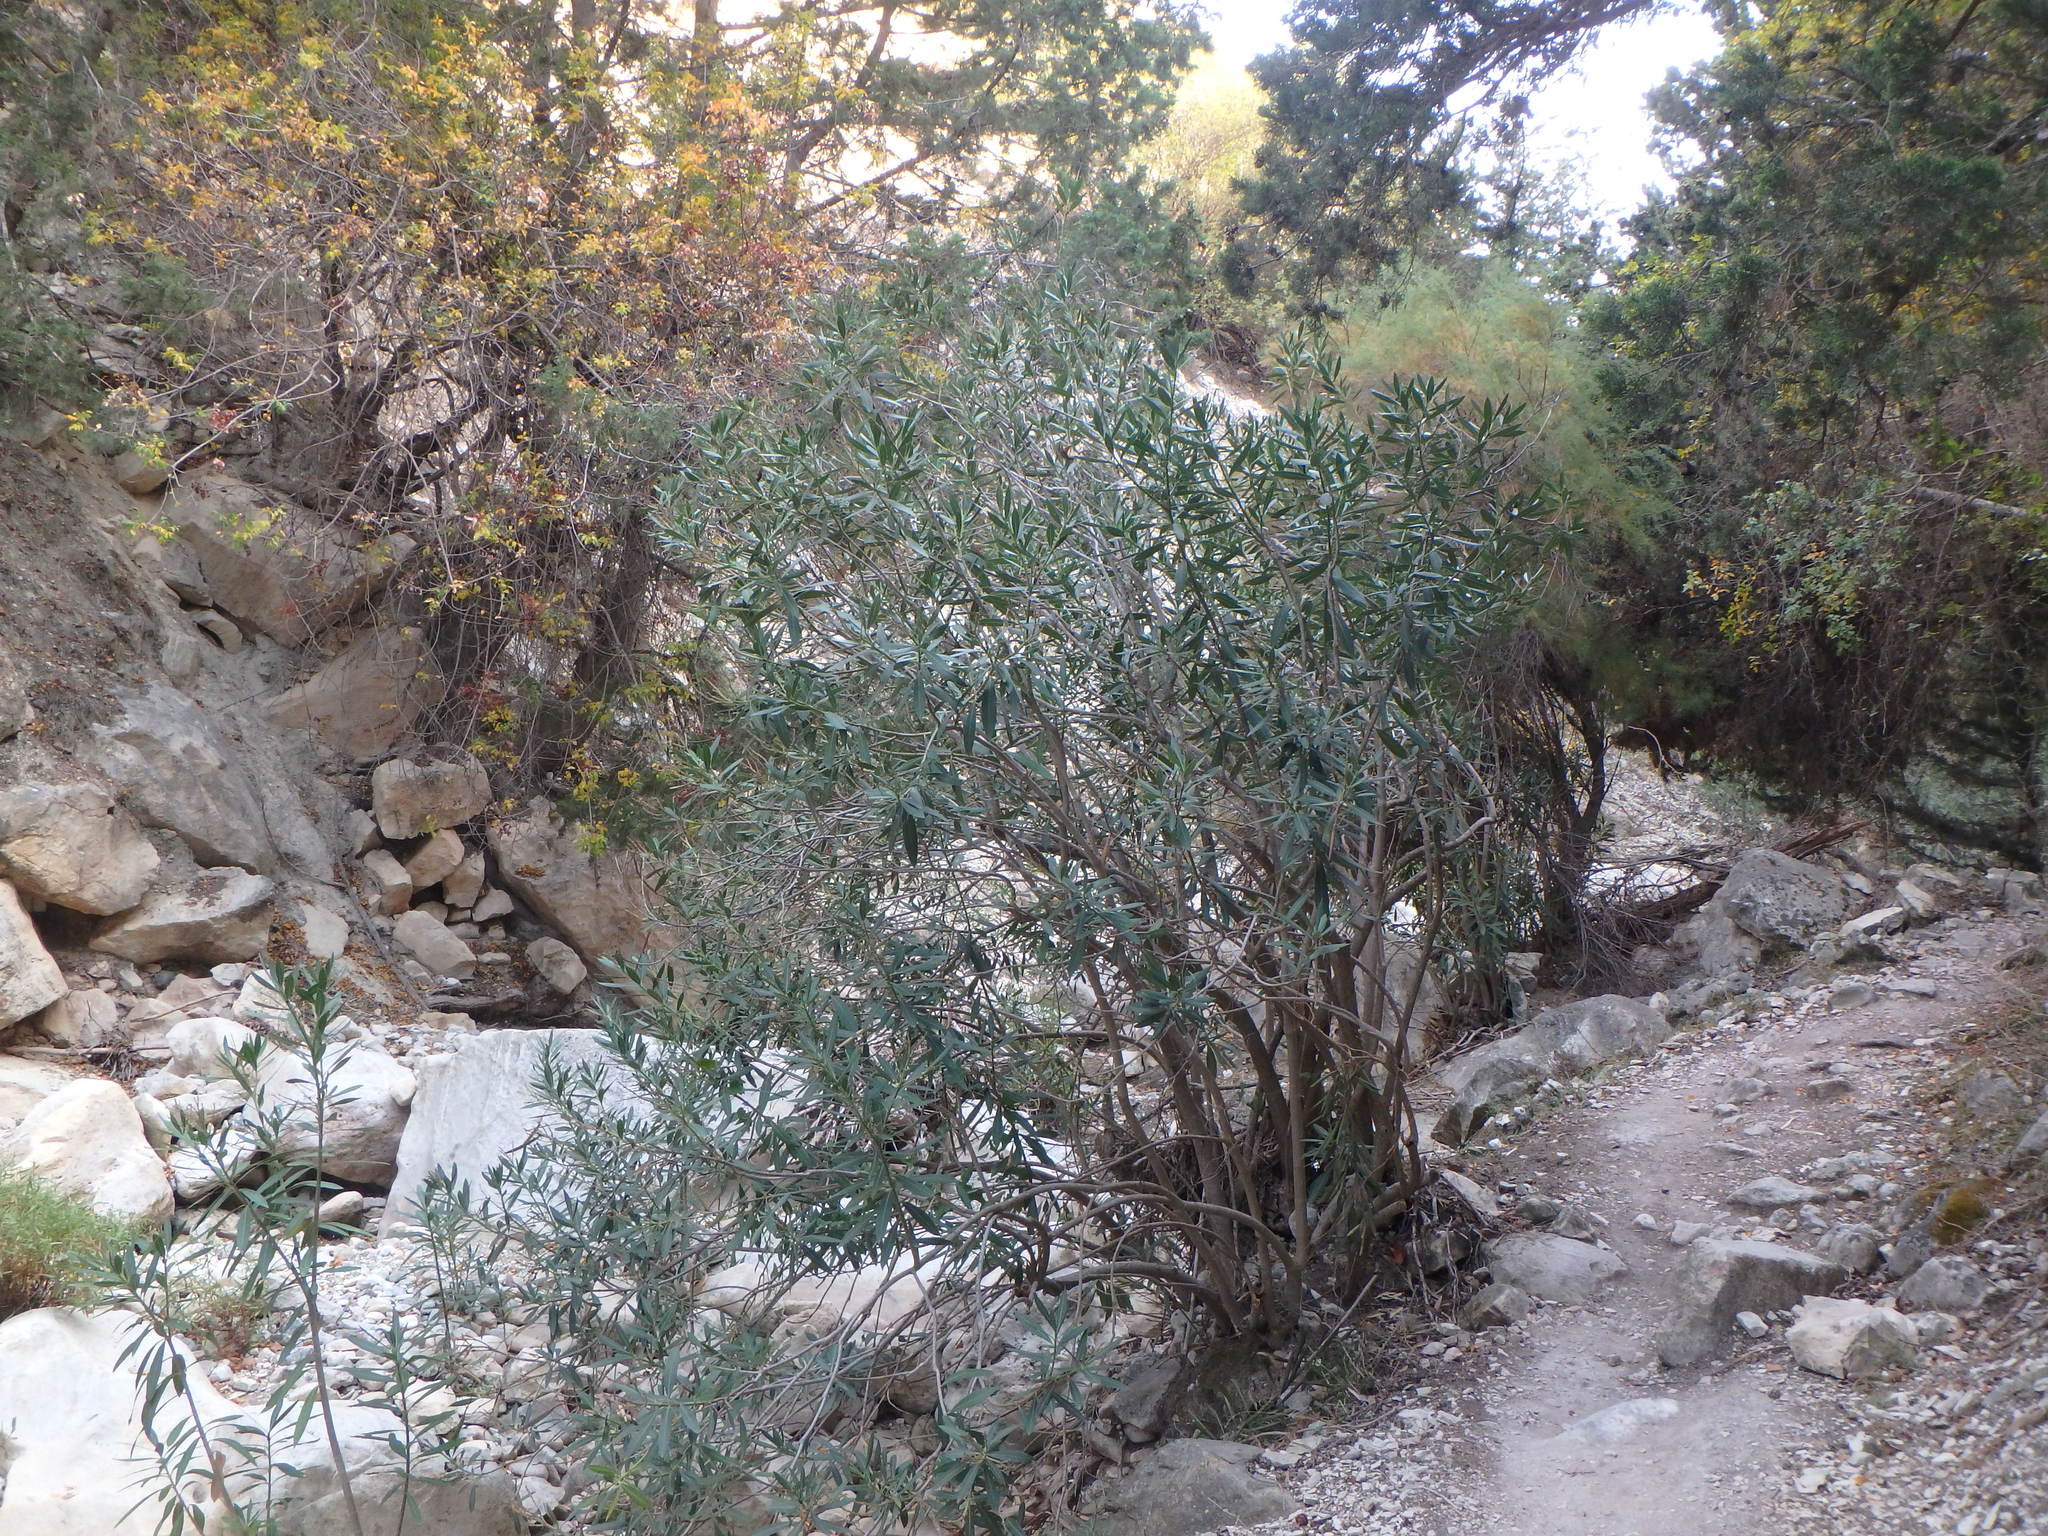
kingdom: Plantae
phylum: Tracheophyta
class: Magnoliopsida
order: Gentianales
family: Apocynaceae
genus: Nerium
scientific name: Nerium oleander
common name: Oleander
